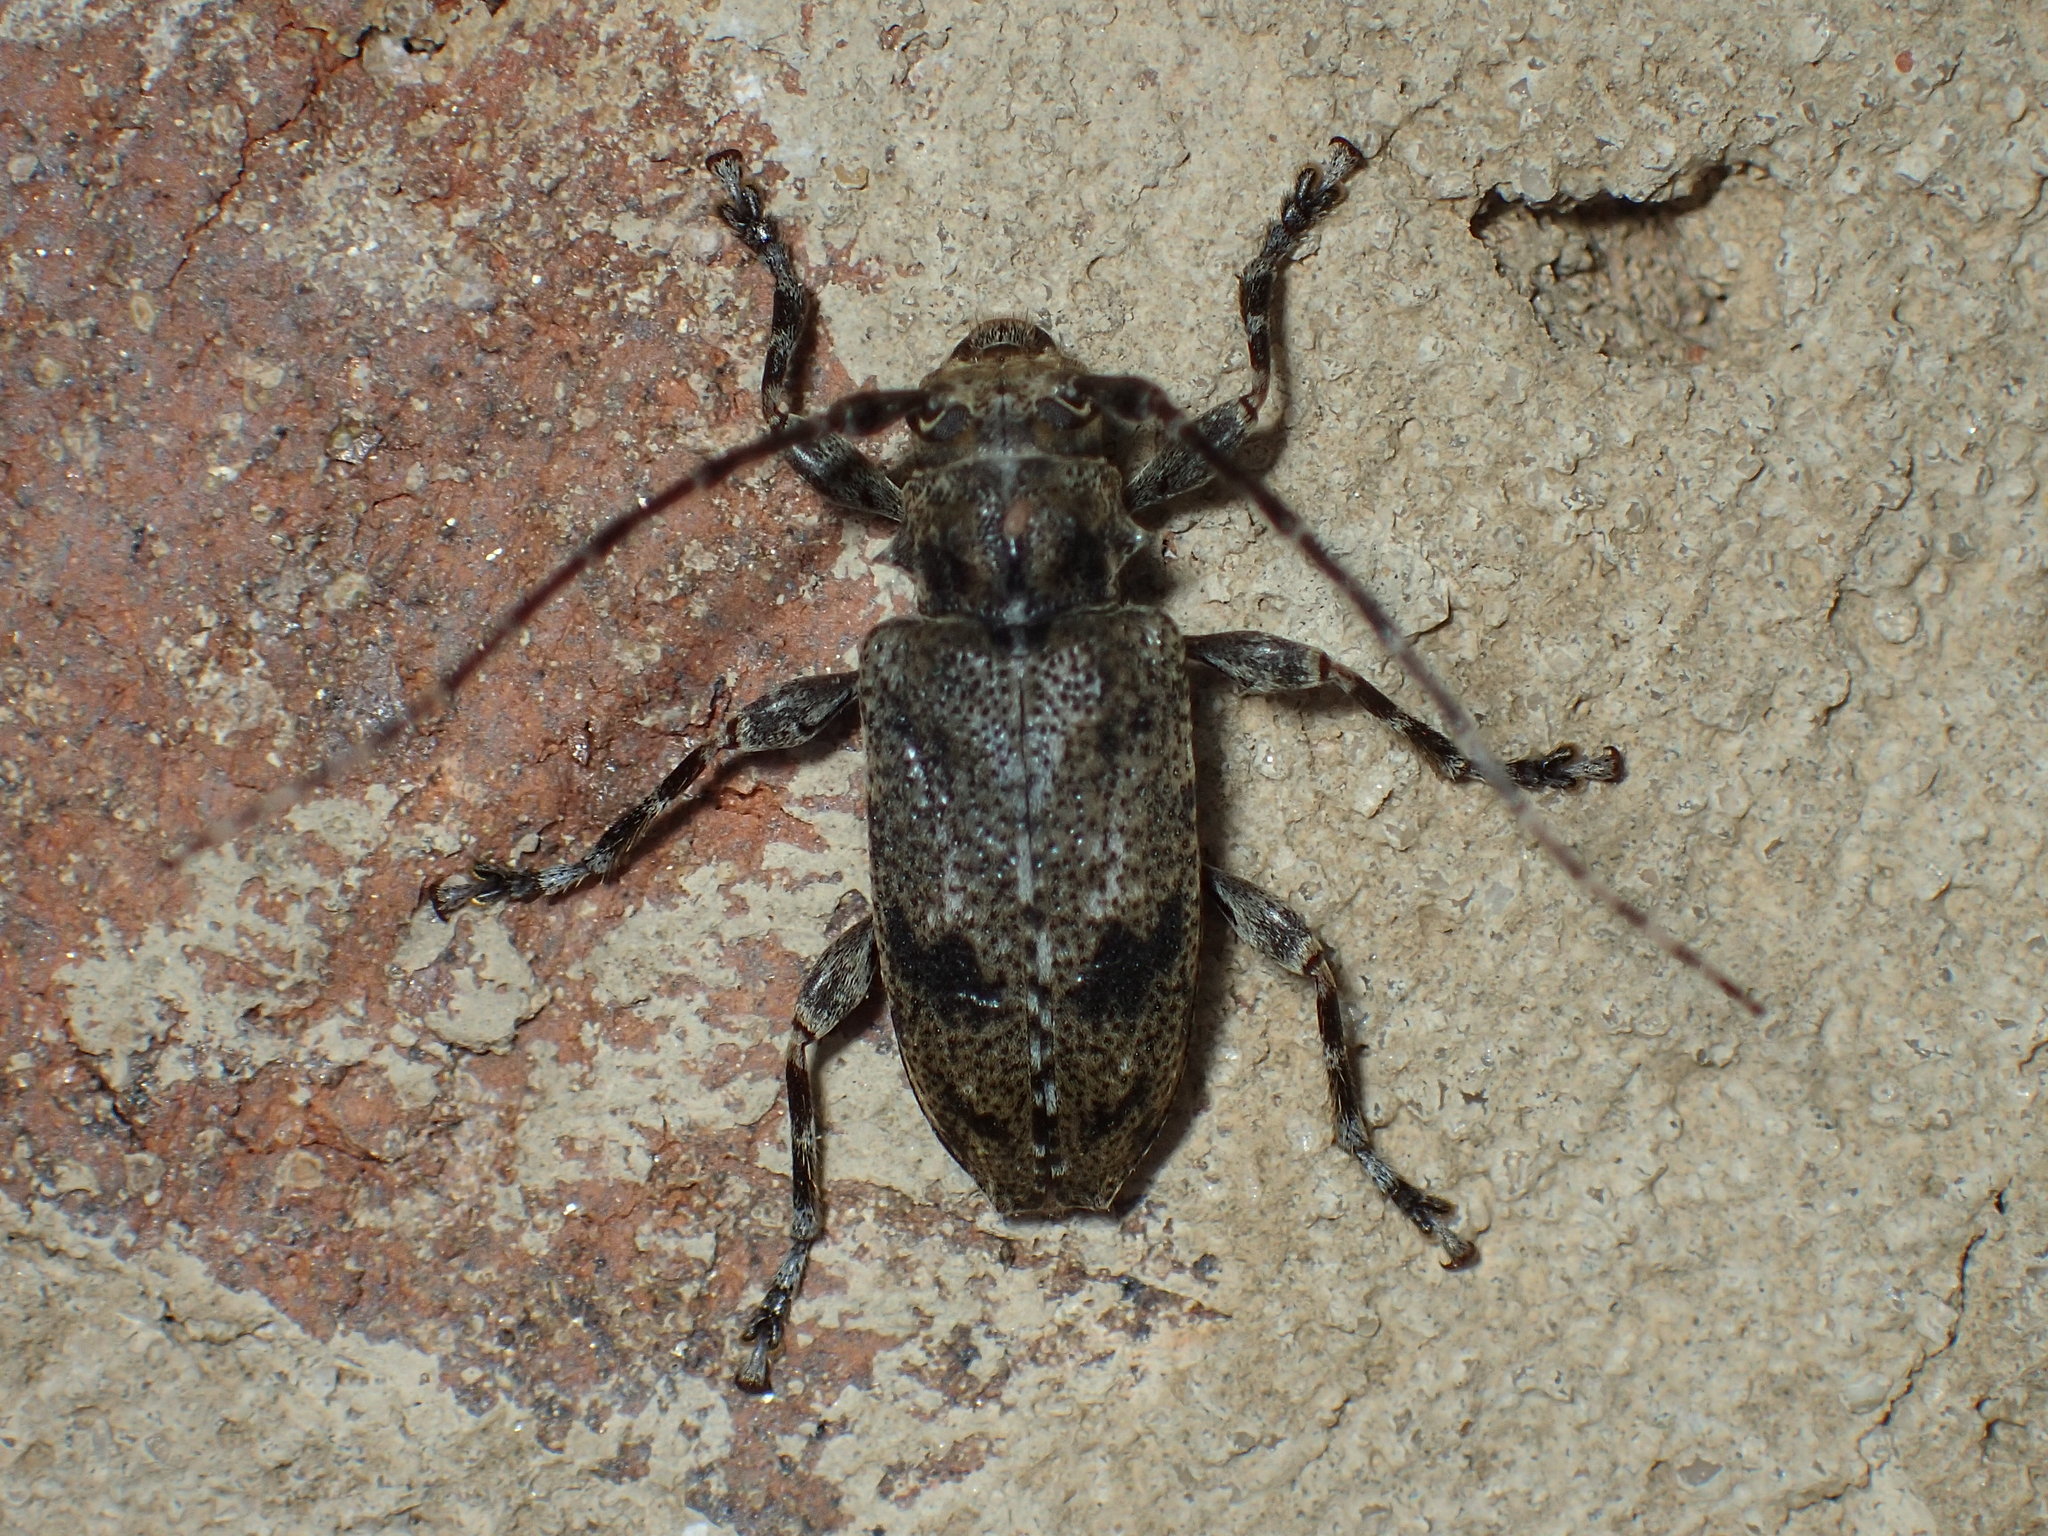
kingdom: Animalia
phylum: Arthropoda
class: Insecta
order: Coleoptera
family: Cerambycidae
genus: Aegomorphus
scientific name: Aegomorphus modestus
